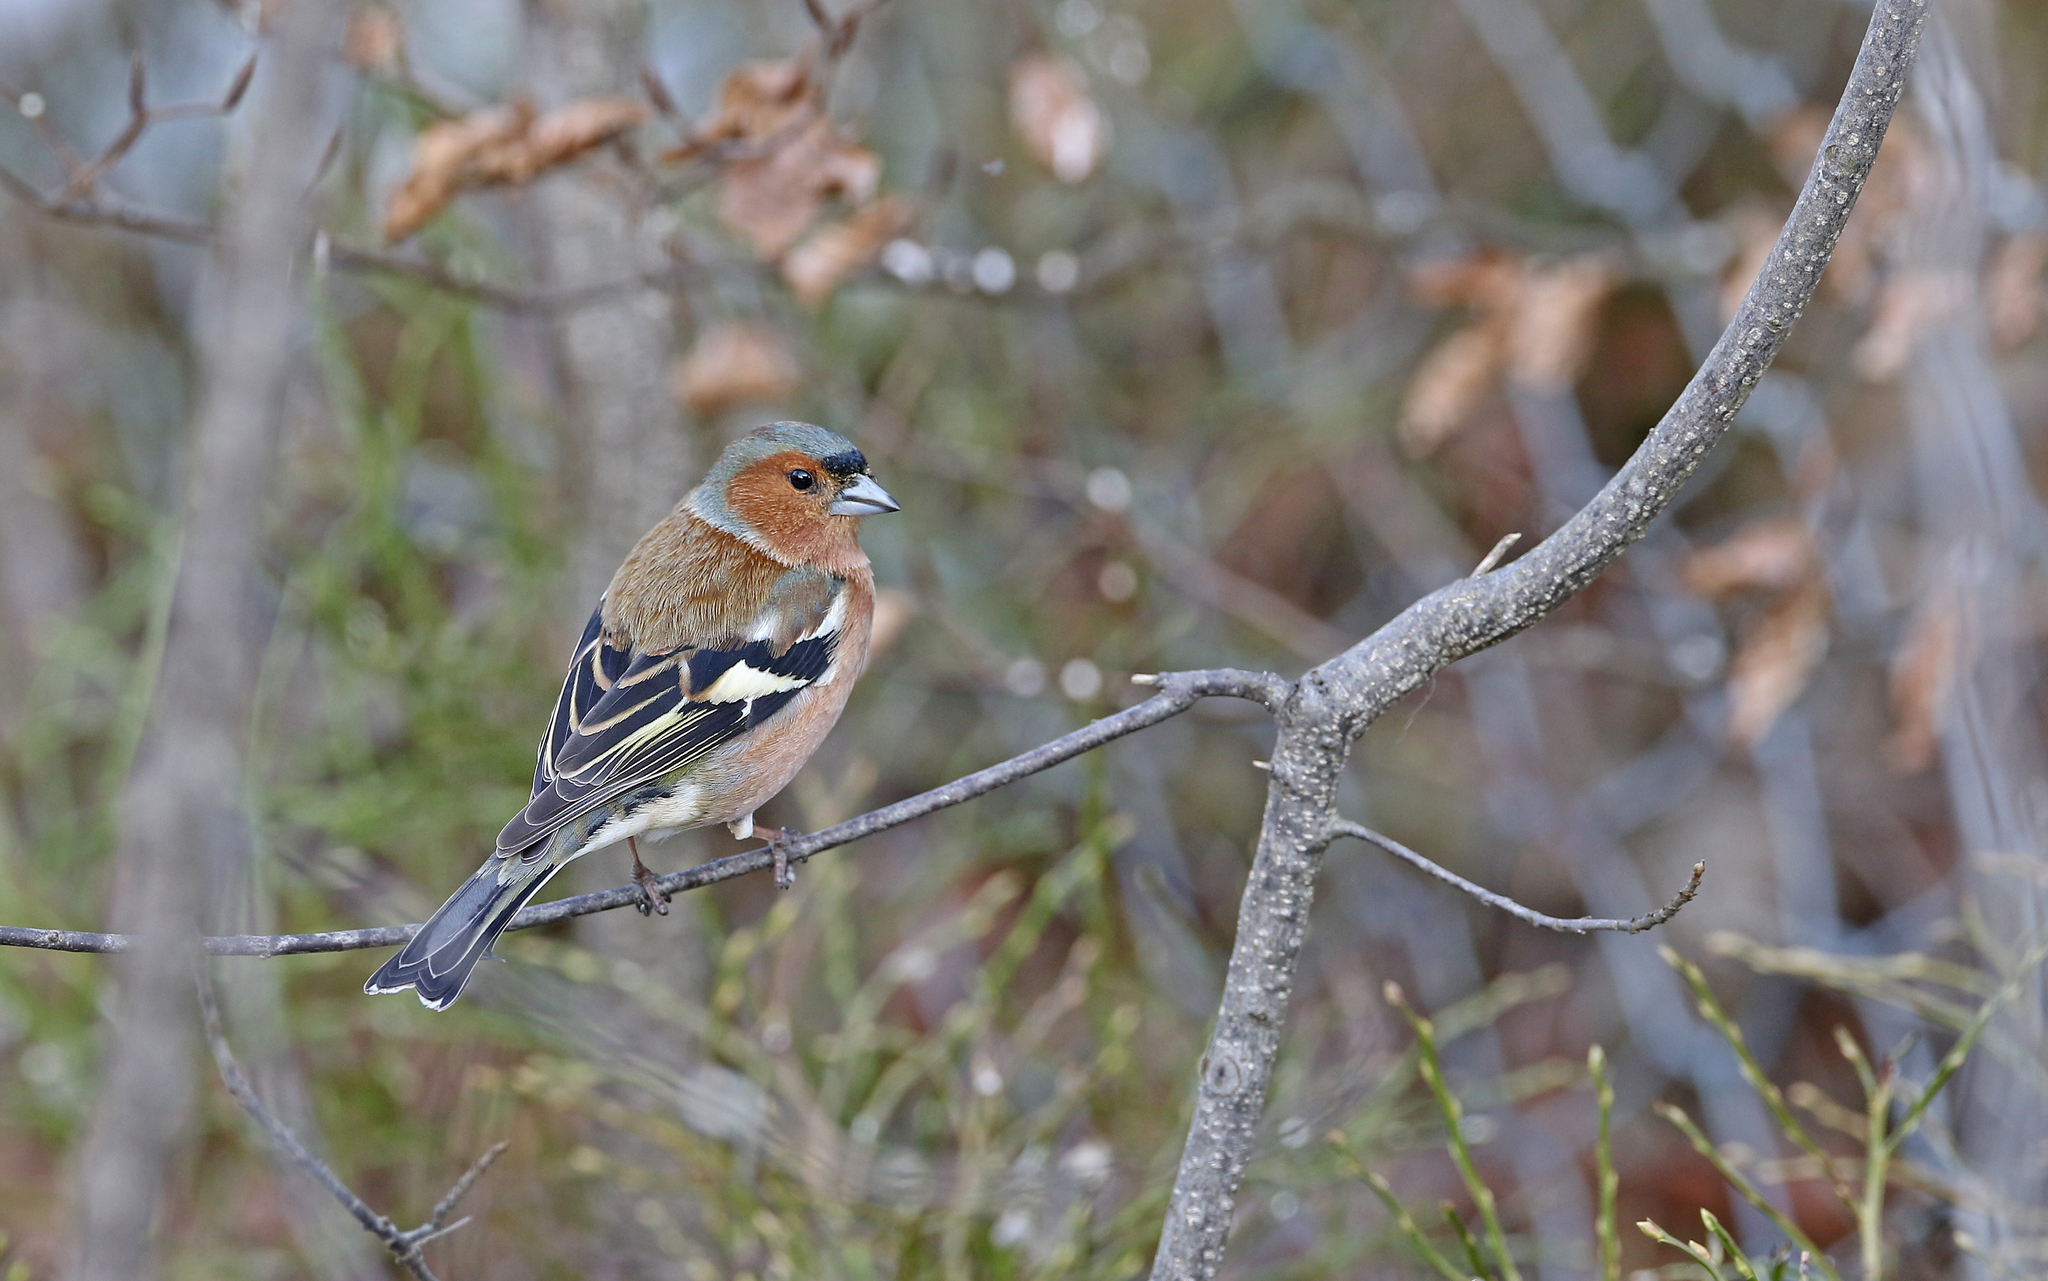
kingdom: Animalia
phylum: Chordata
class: Aves
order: Passeriformes
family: Fringillidae
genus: Fringilla
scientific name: Fringilla coelebs
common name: Common chaffinch
